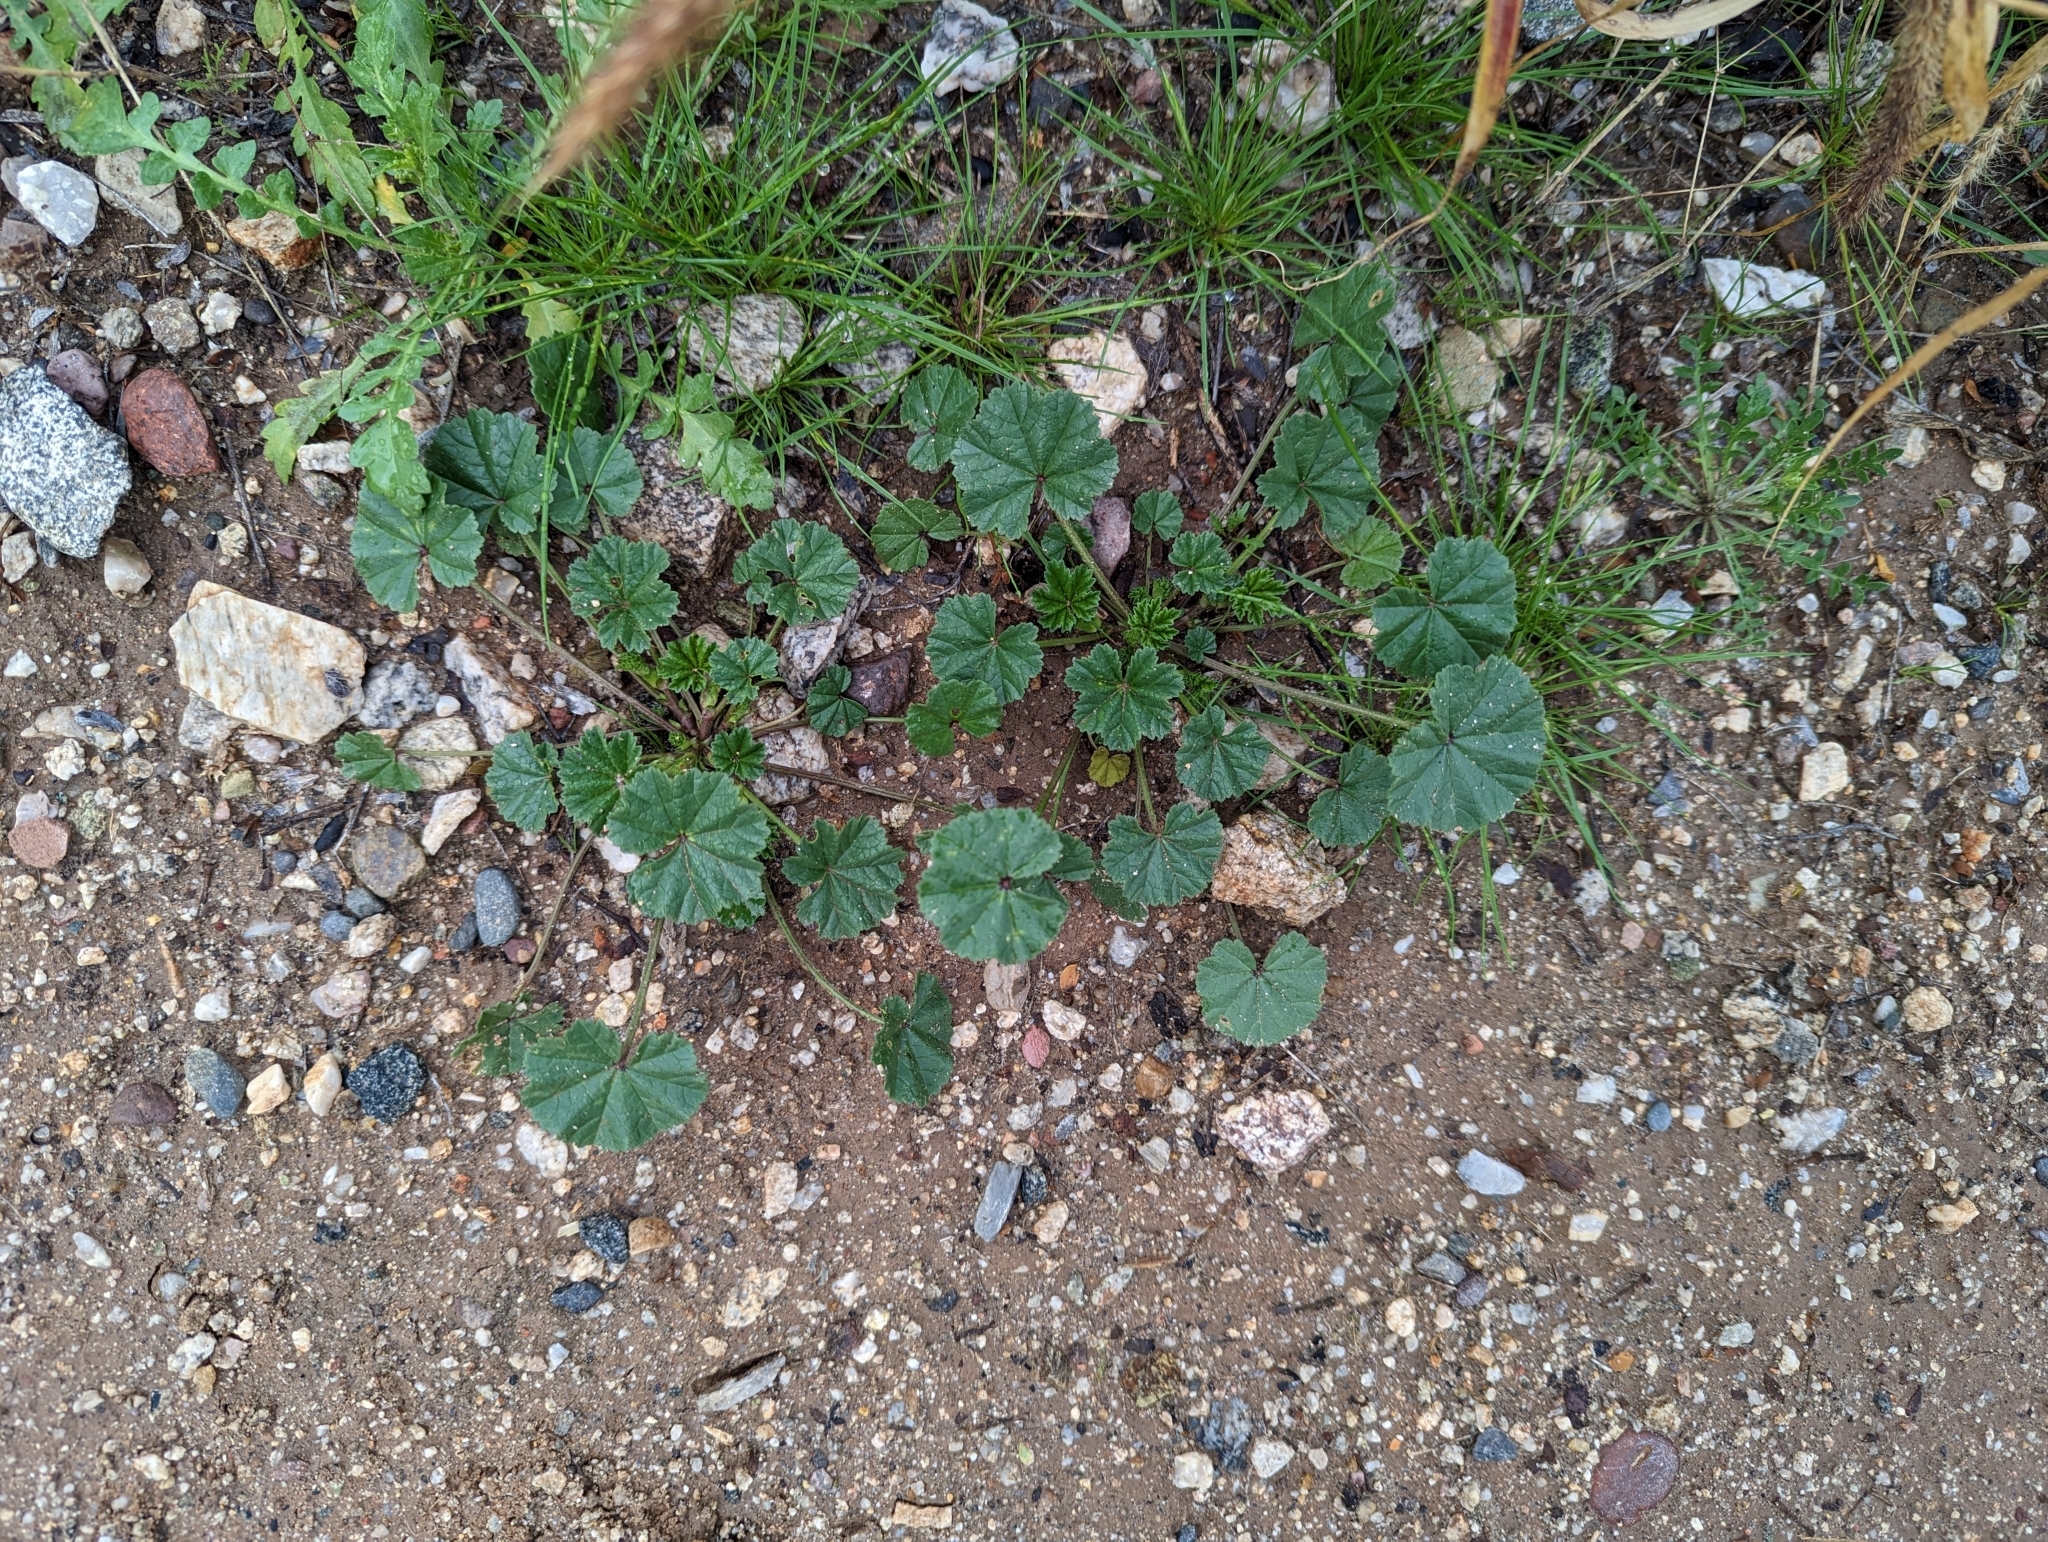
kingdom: Plantae
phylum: Tracheophyta
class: Magnoliopsida
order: Malvales
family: Malvaceae
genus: Malva
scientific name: Malva parviflora
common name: Least mallow
